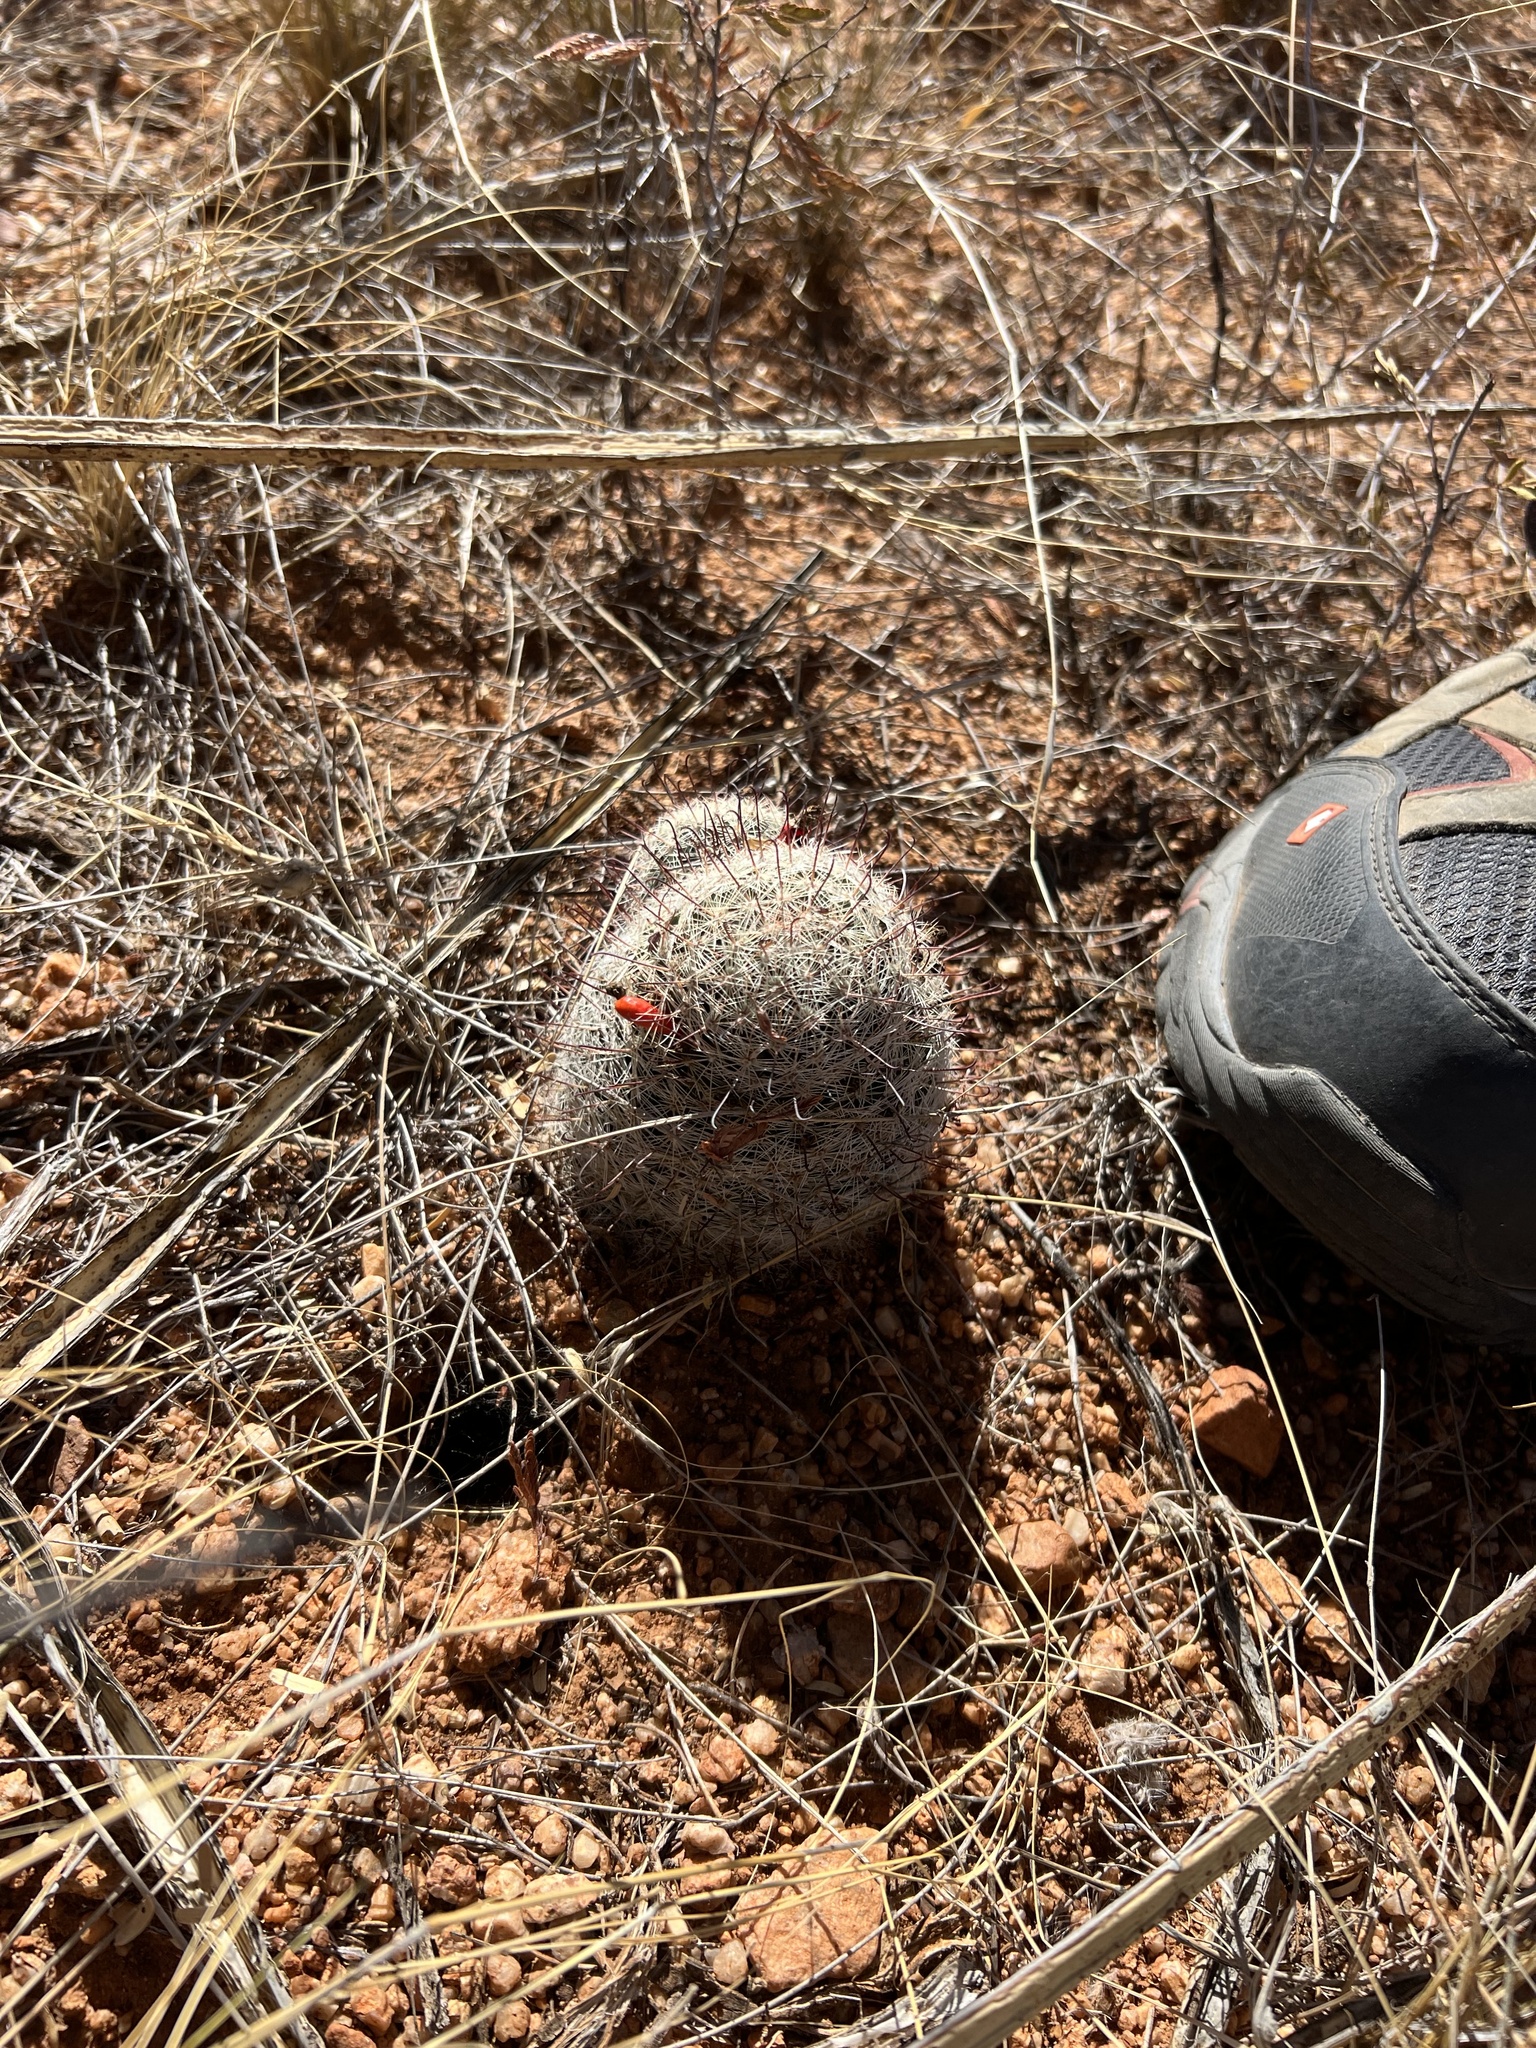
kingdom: Plantae
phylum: Tracheophyta
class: Magnoliopsida
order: Caryophyllales
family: Cactaceae
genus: Cochemiea
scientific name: Cochemiea grahamii
